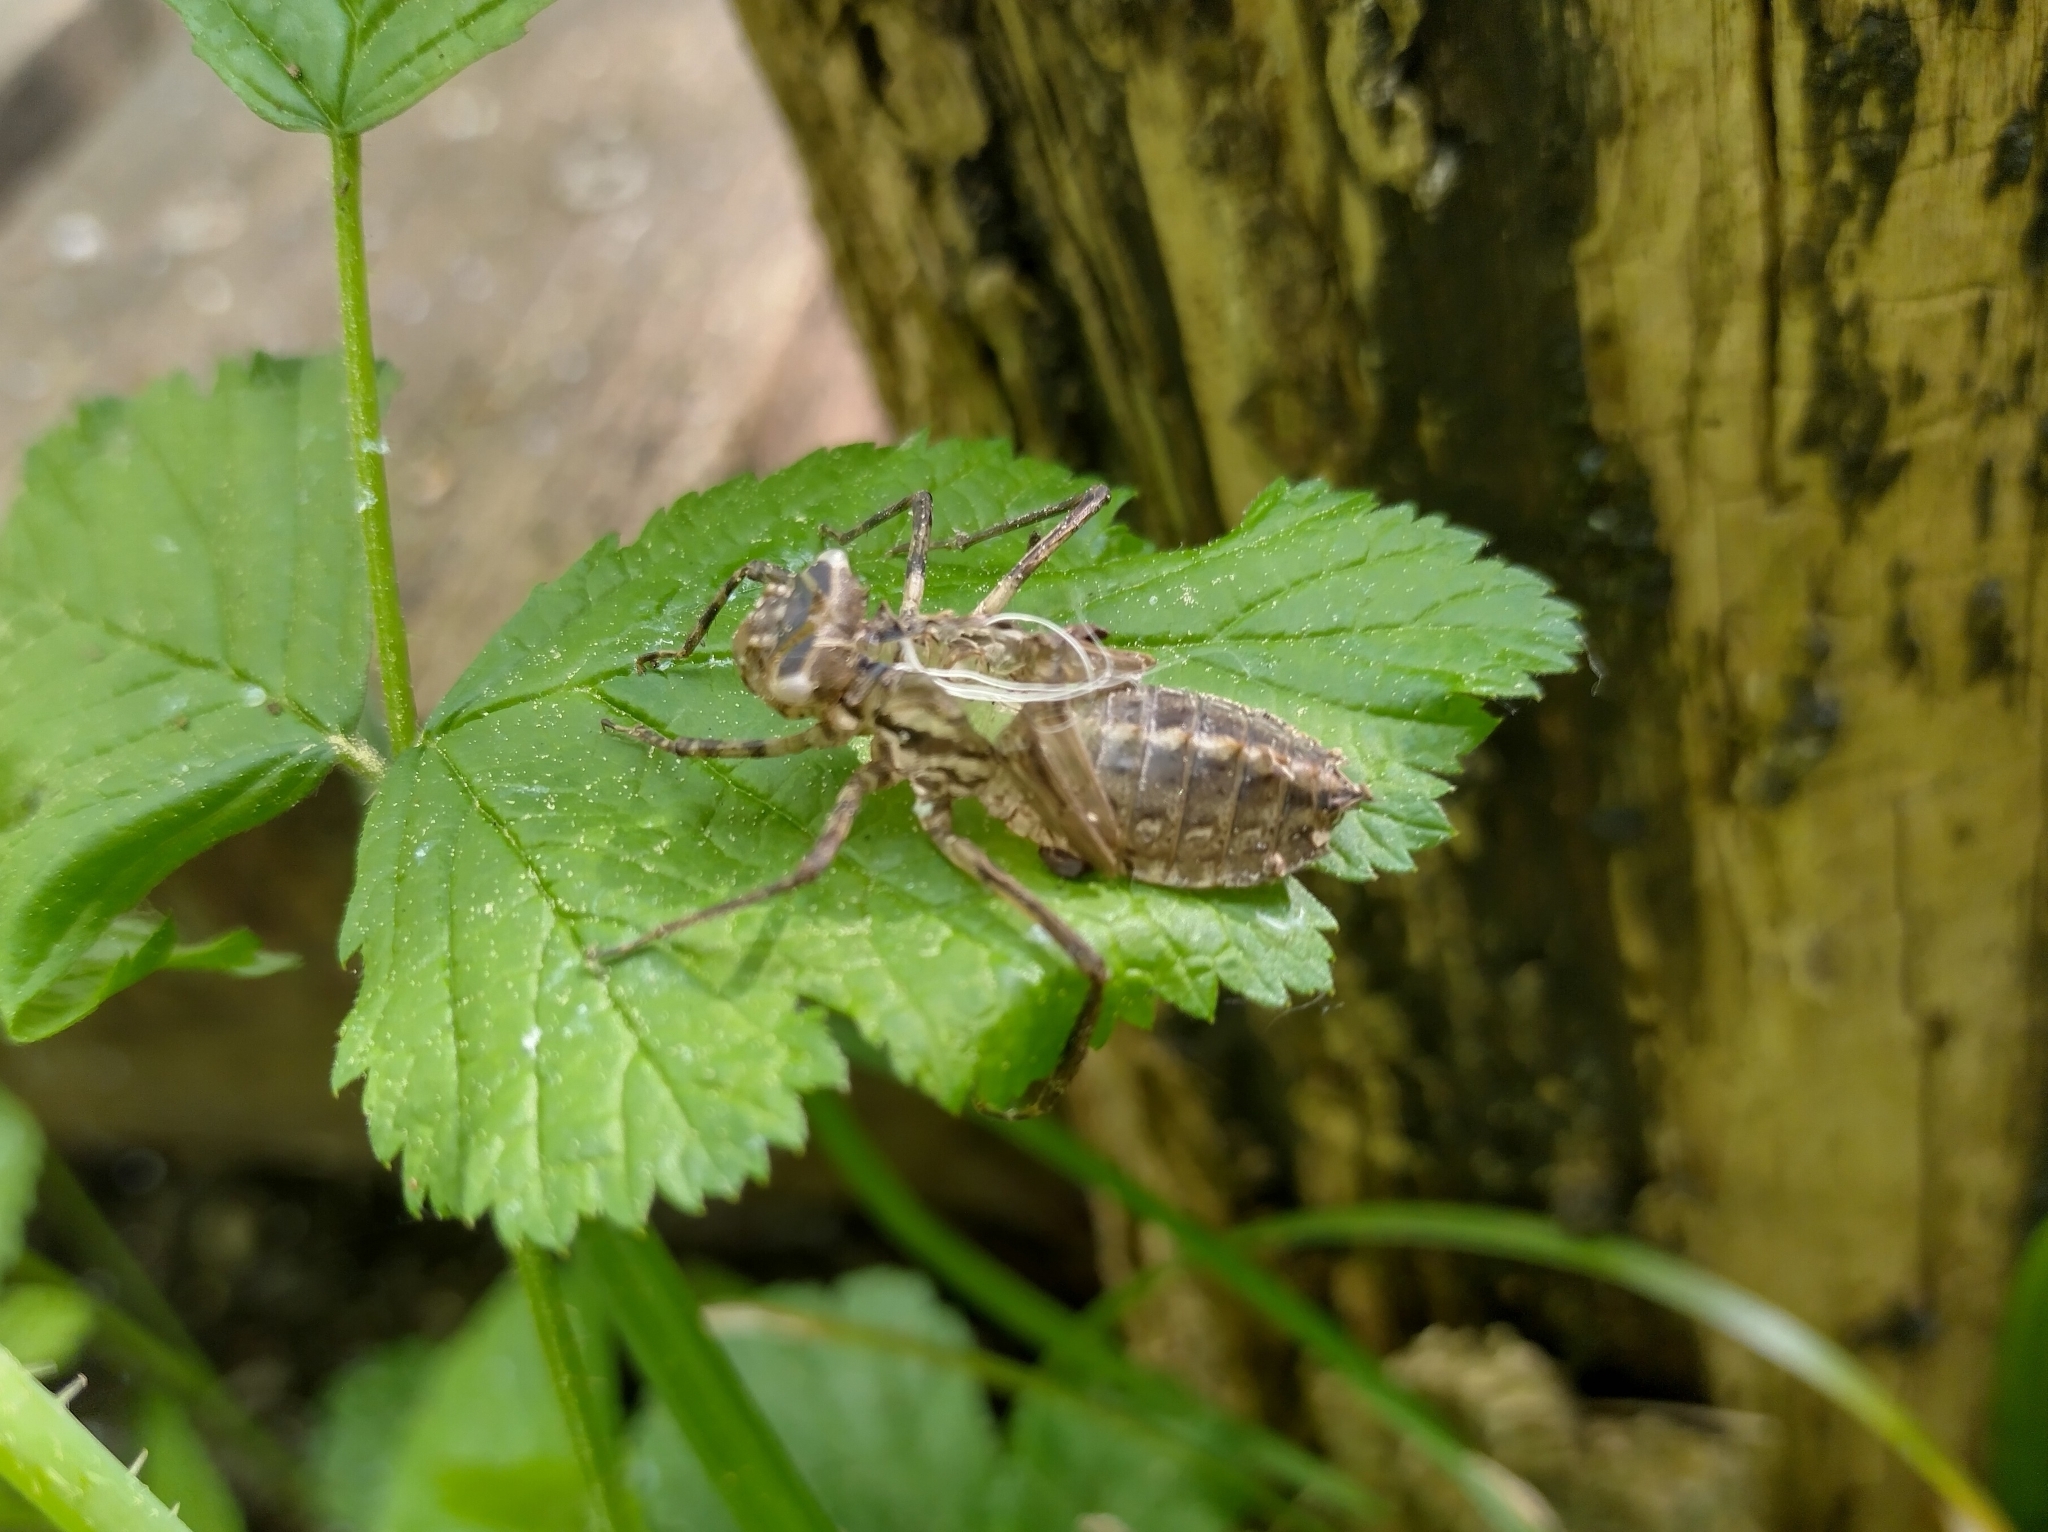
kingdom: Animalia
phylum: Arthropoda
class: Insecta
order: Odonata
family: Corduliidae
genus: Cordulia
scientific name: Cordulia aenea
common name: Downy emerald
